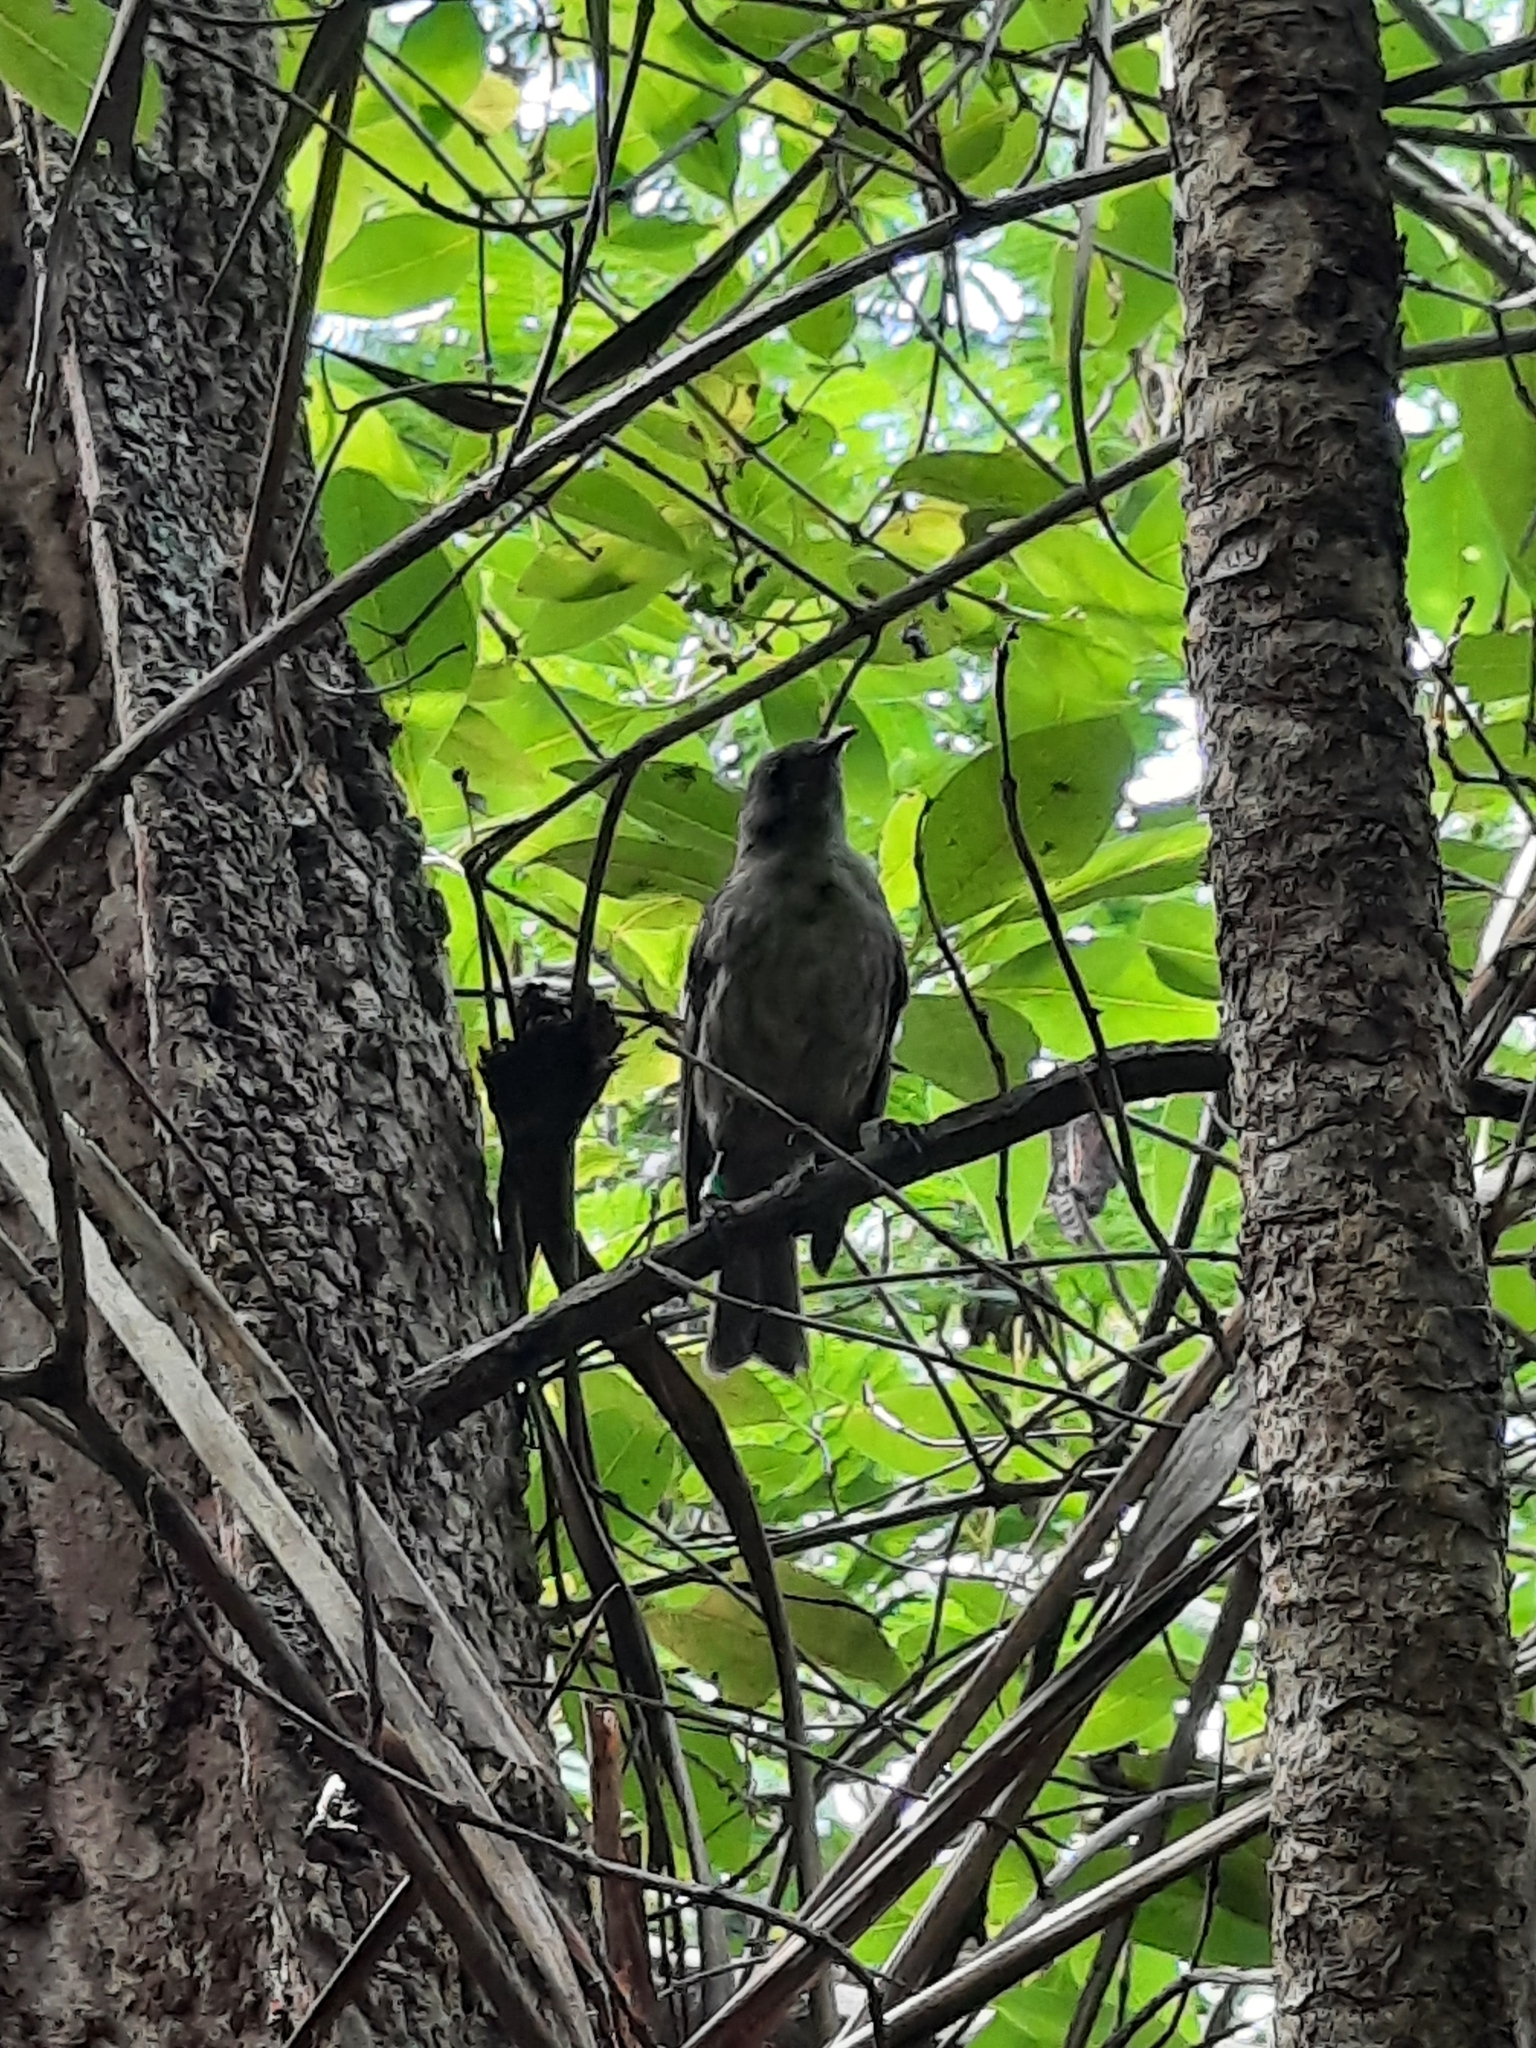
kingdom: Animalia
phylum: Chordata
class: Aves
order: Passeriformes
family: Meliphagidae
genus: Anthornis
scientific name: Anthornis melanura
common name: New zealand bellbird
